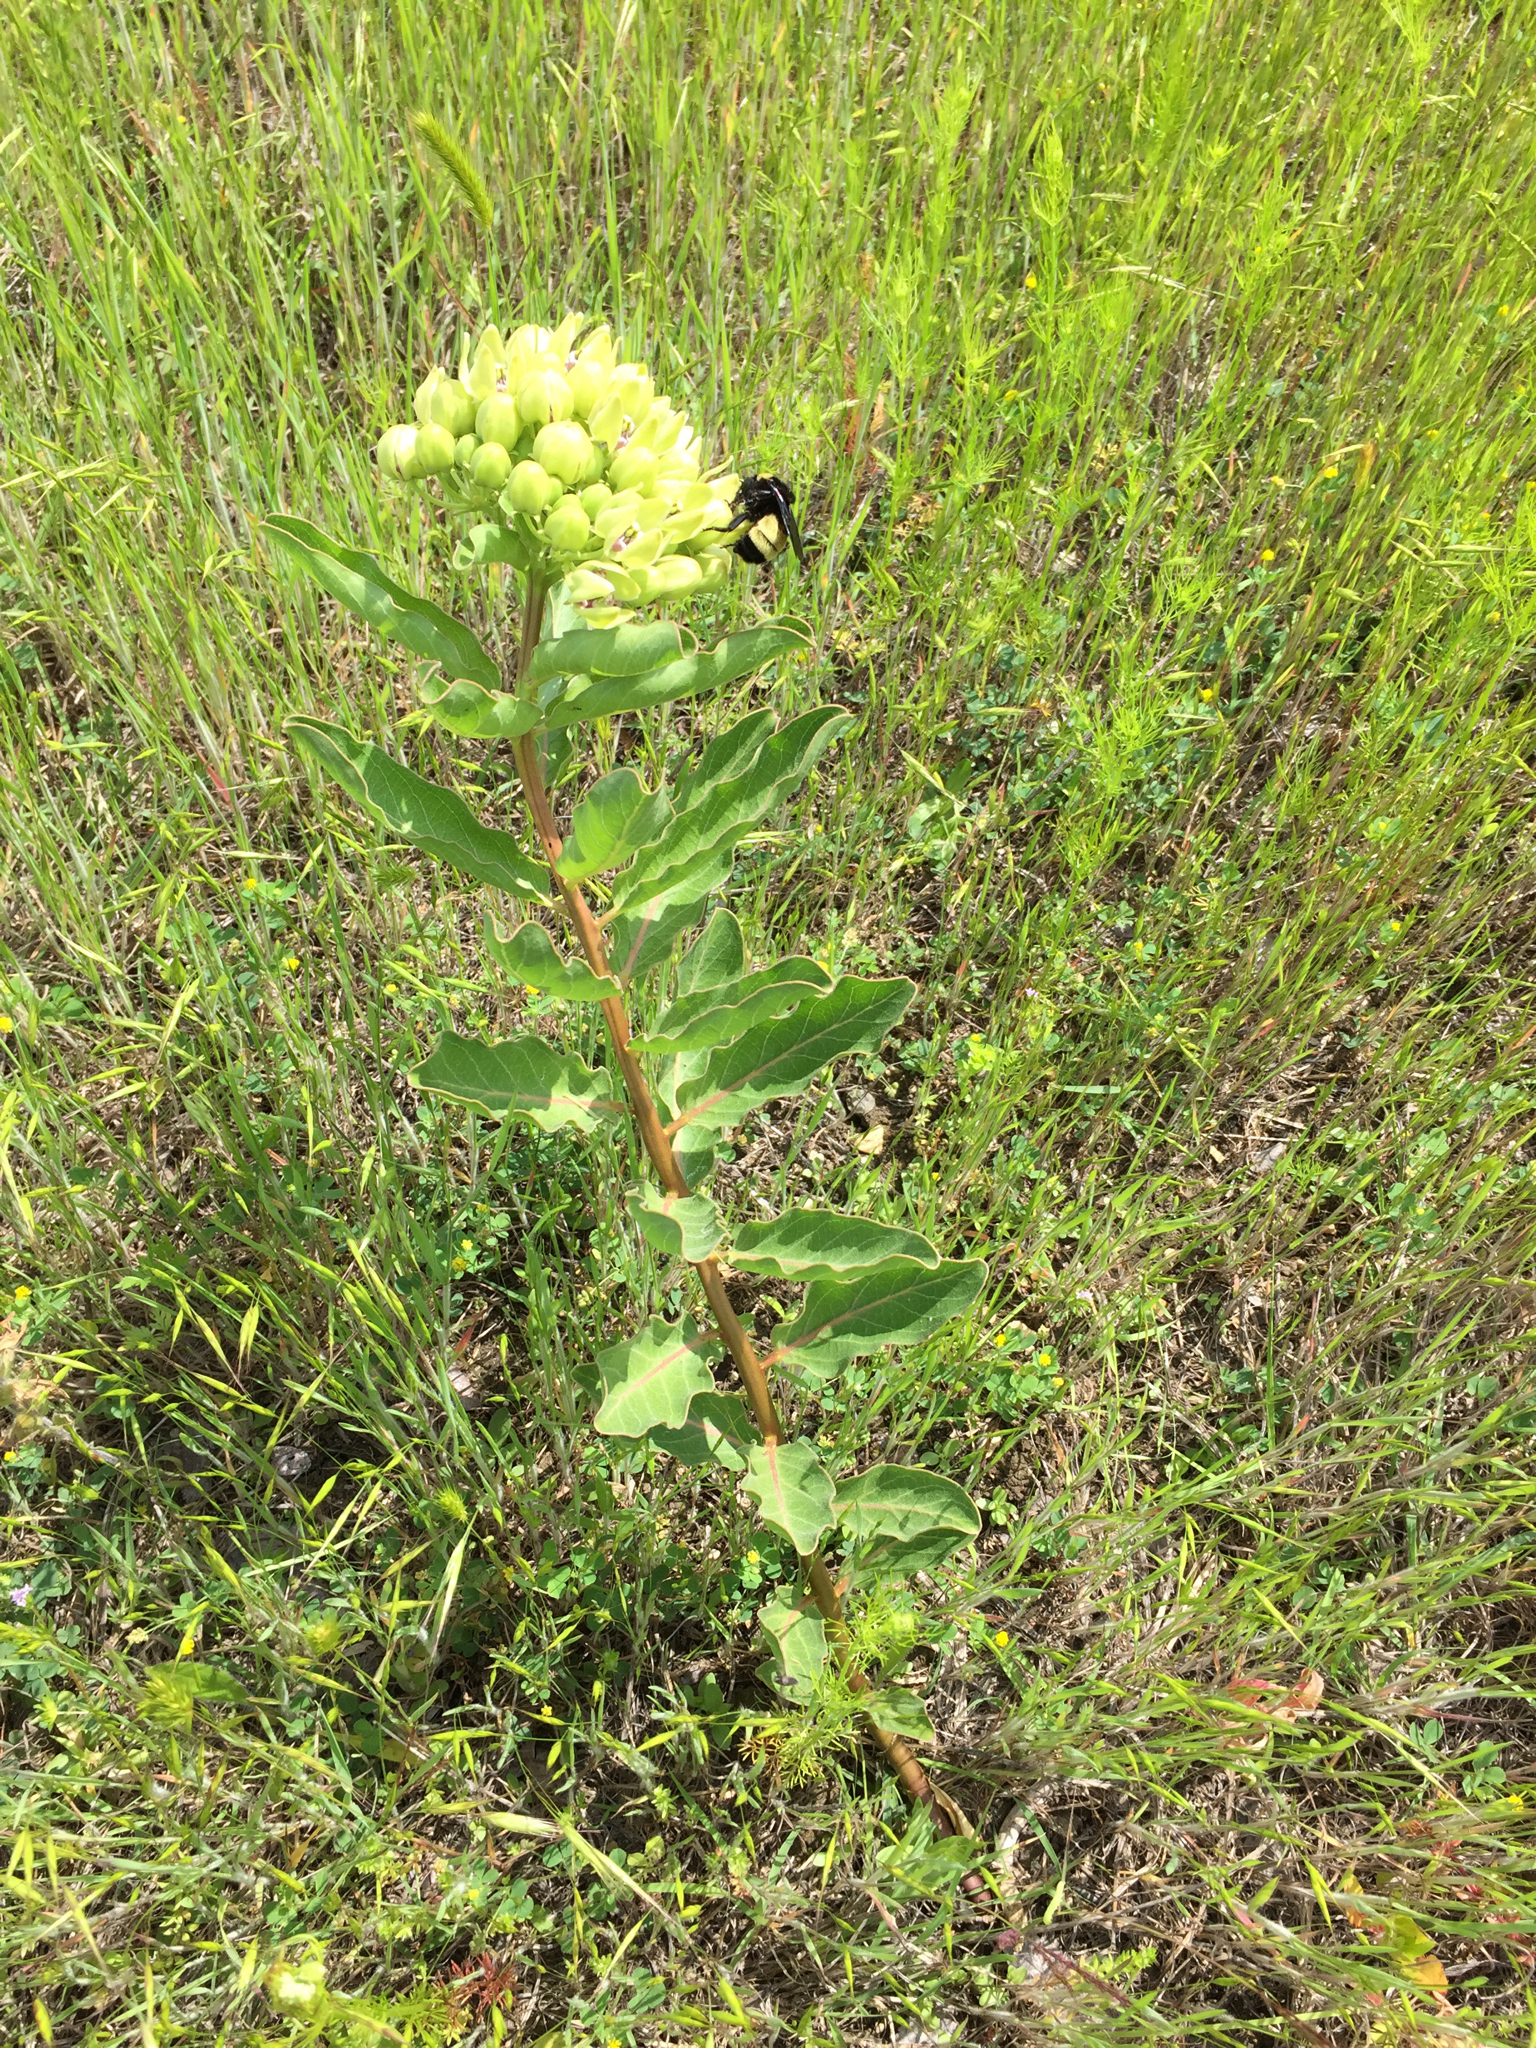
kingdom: Plantae
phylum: Tracheophyta
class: Magnoliopsida
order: Gentianales
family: Apocynaceae
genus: Asclepias
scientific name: Asclepias viridis
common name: Antelope-horns
